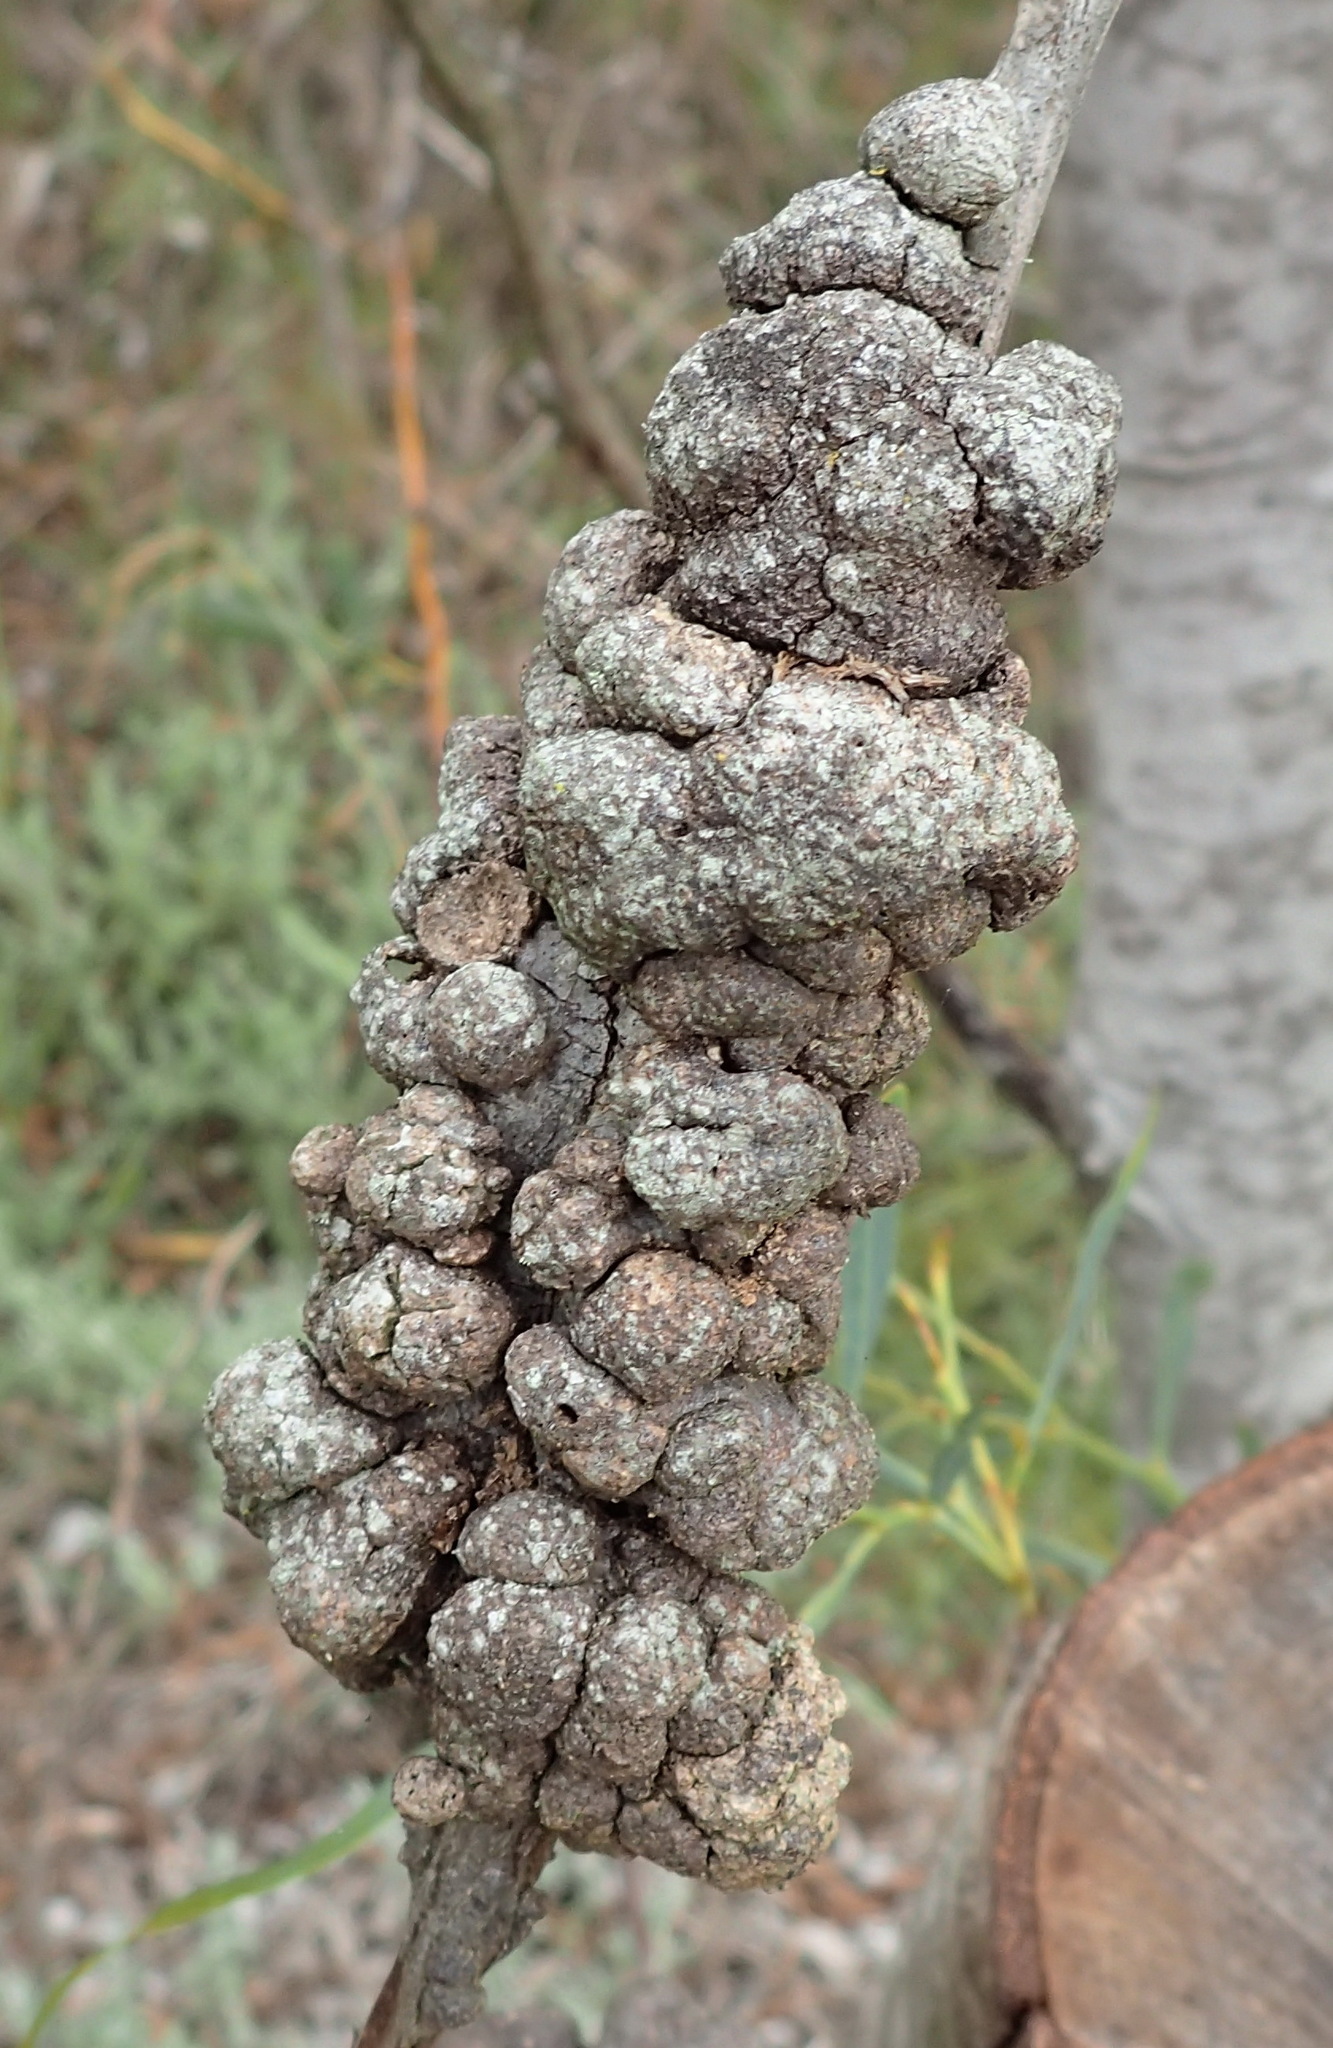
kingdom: Fungi
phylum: Basidiomycota
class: Pucciniomycetes
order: Pucciniales
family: Uromycladiaceae
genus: Uromycladium
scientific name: Uromycladium morrisii
